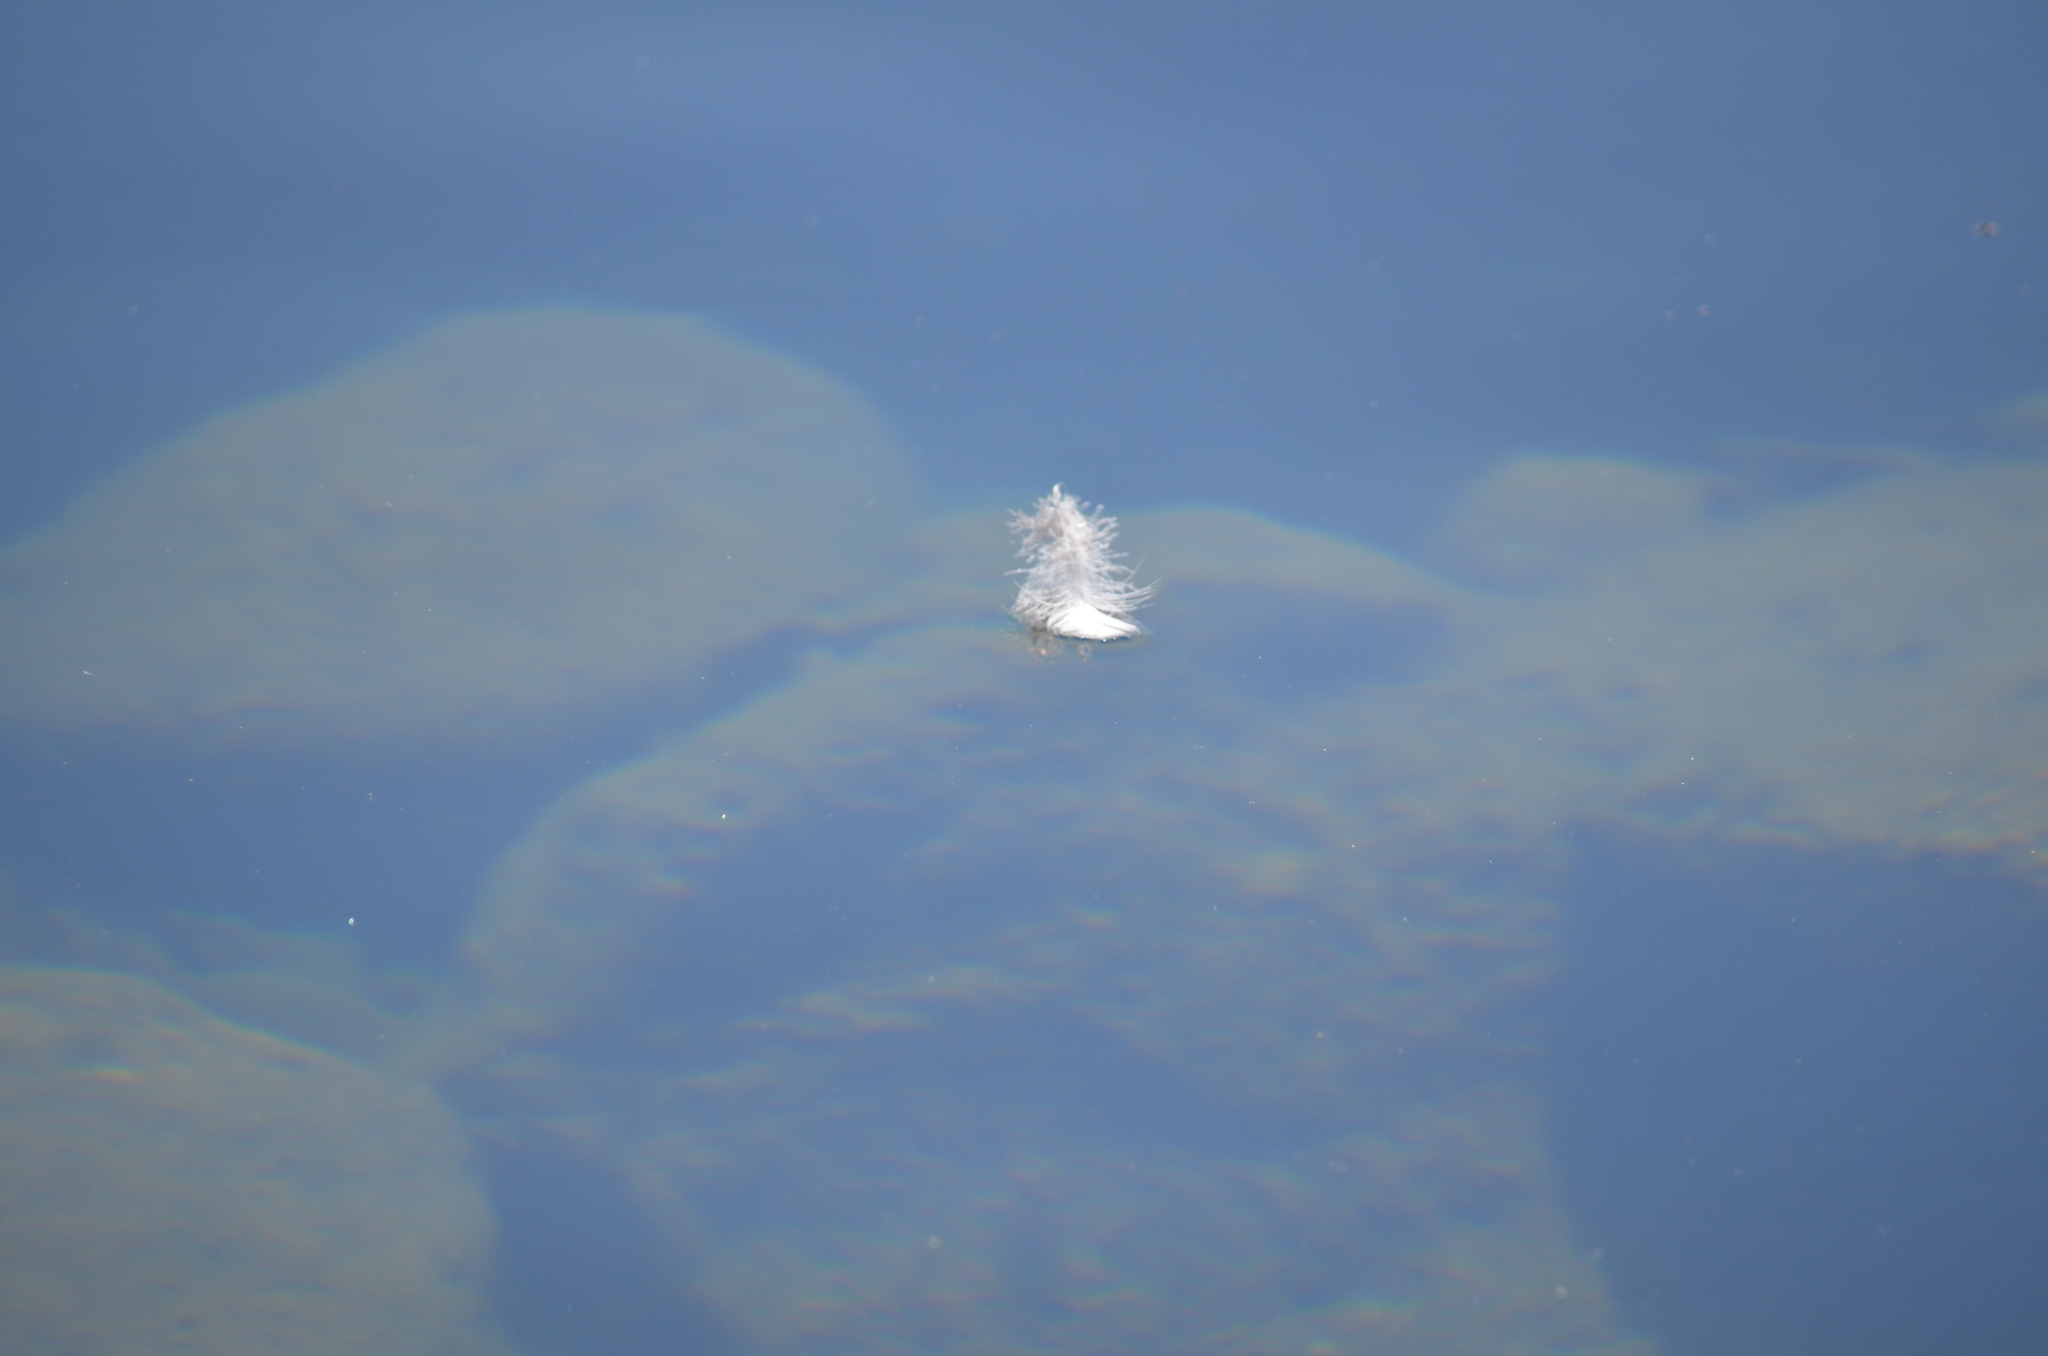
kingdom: Animalia
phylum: Chordata
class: Aves
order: Anseriformes
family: Anatidae
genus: Branta
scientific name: Branta canadensis
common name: Canada goose
